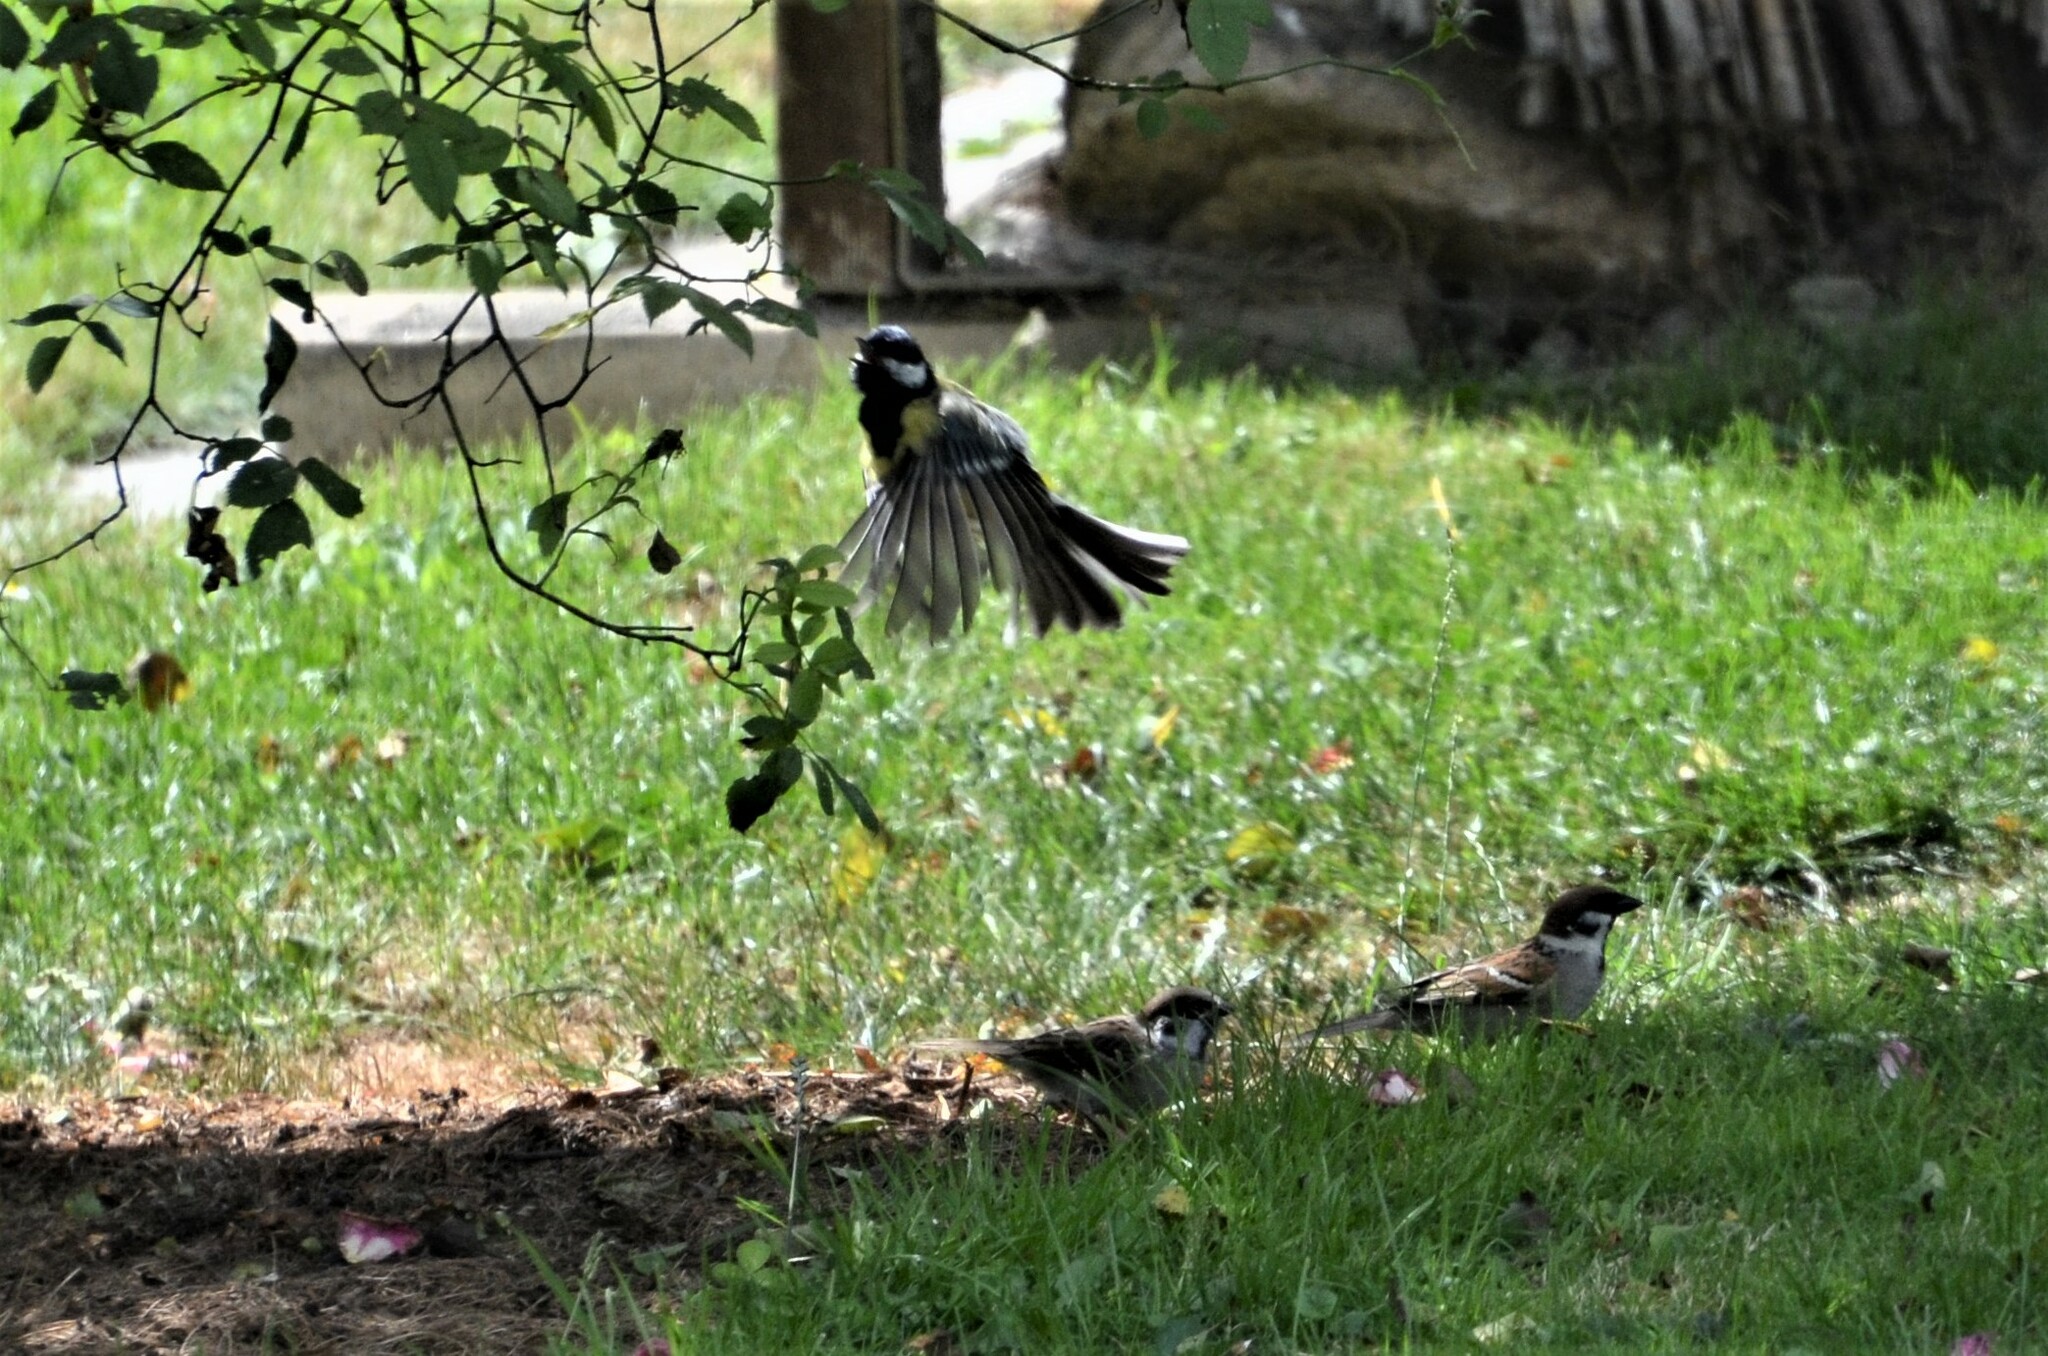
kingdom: Animalia
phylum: Chordata
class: Aves
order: Passeriformes
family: Paridae
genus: Parus
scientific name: Parus major
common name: Great tit
